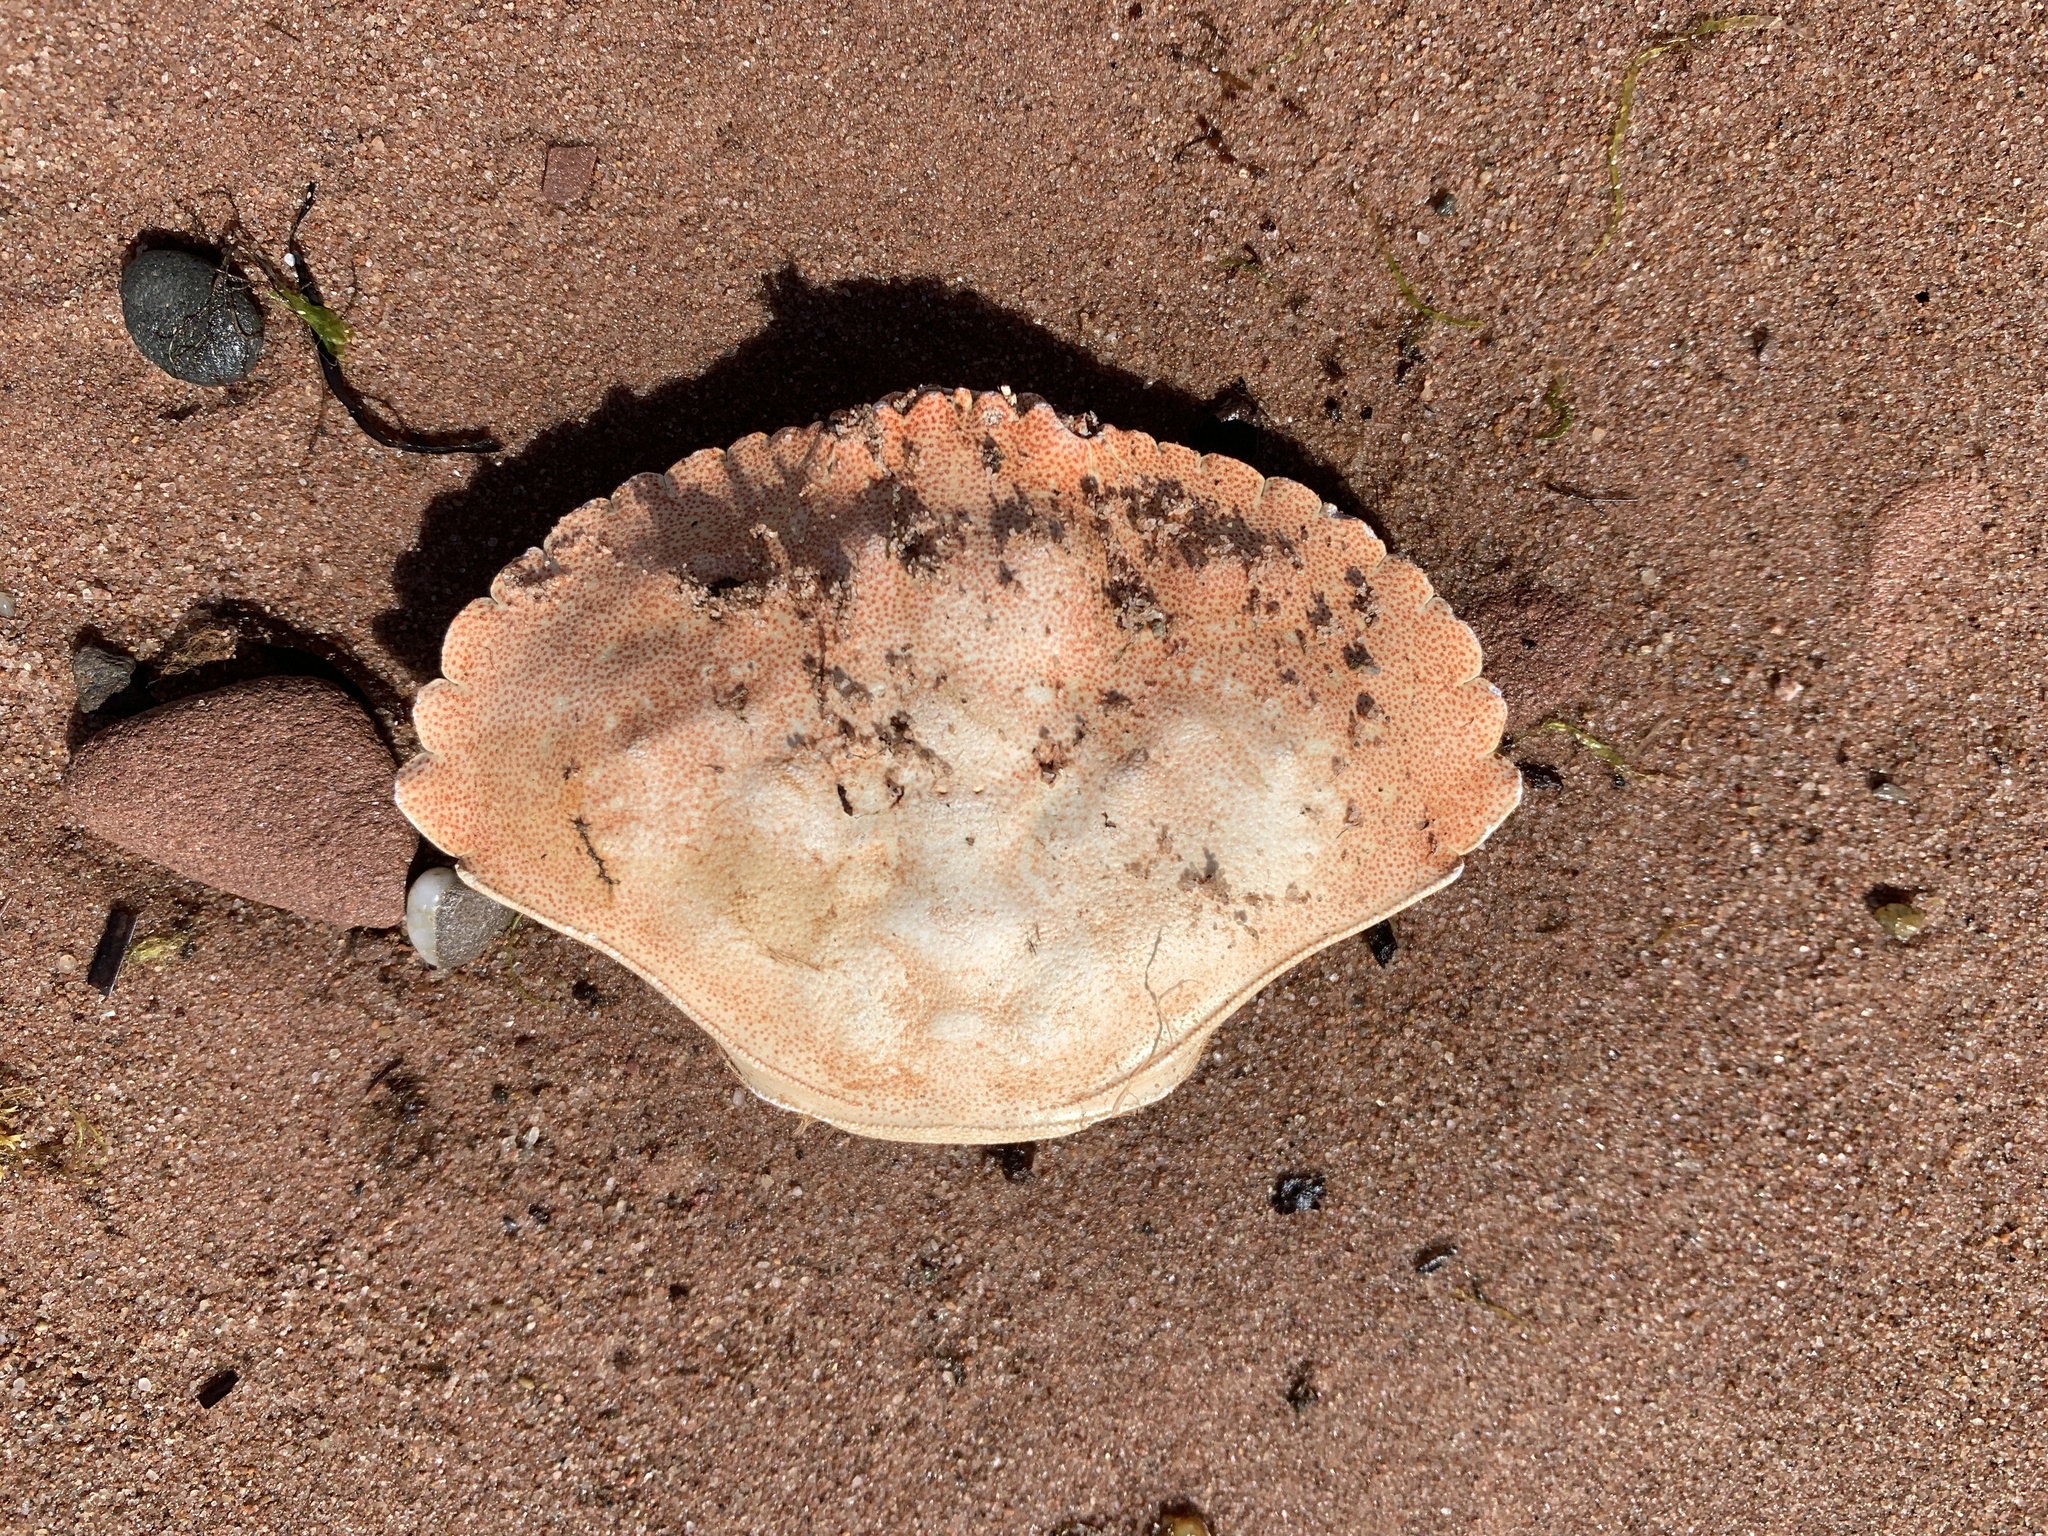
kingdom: Animalia
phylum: Arthropoda
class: Malacostraca
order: Decapoda
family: Cancridae
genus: Cancer
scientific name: Cancer irroratus
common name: Atlantic rock crab
